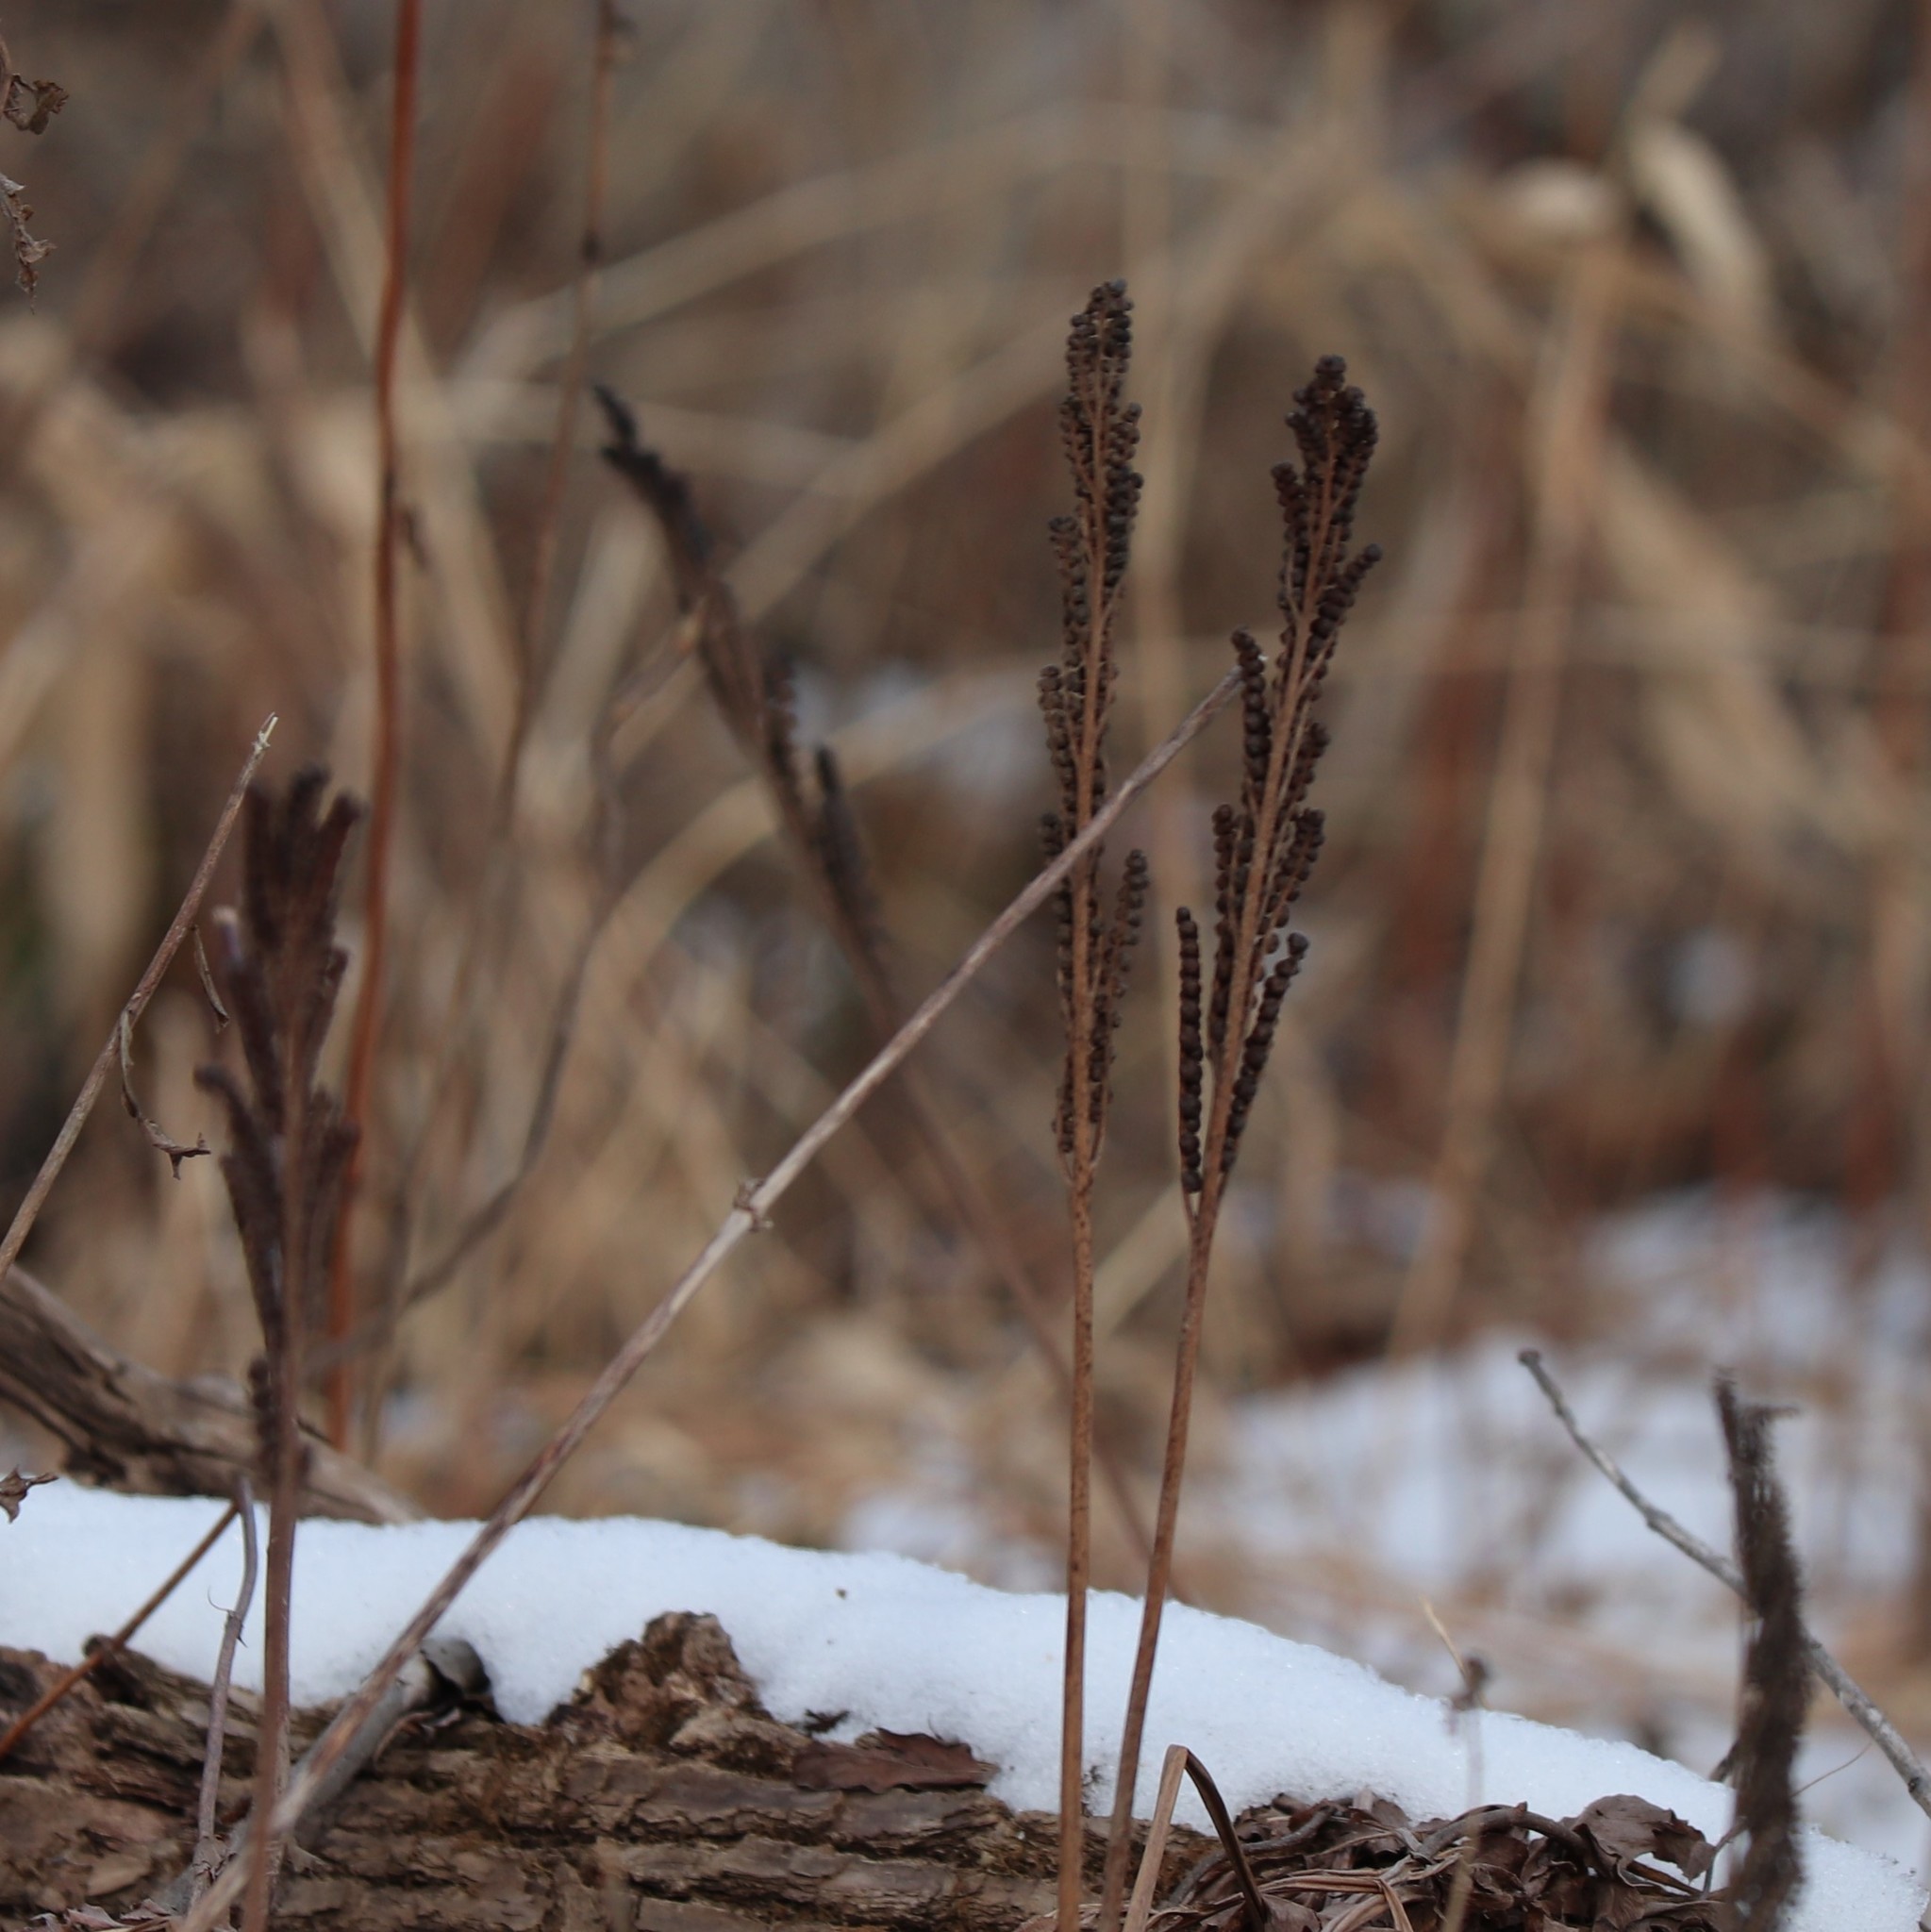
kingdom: Plantae
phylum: Tracheophyta
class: Polypodiopsida
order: Polypodiales
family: Onocleaceae
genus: Onoclea
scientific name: Onoclea sensibilis
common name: Sensitive fern
